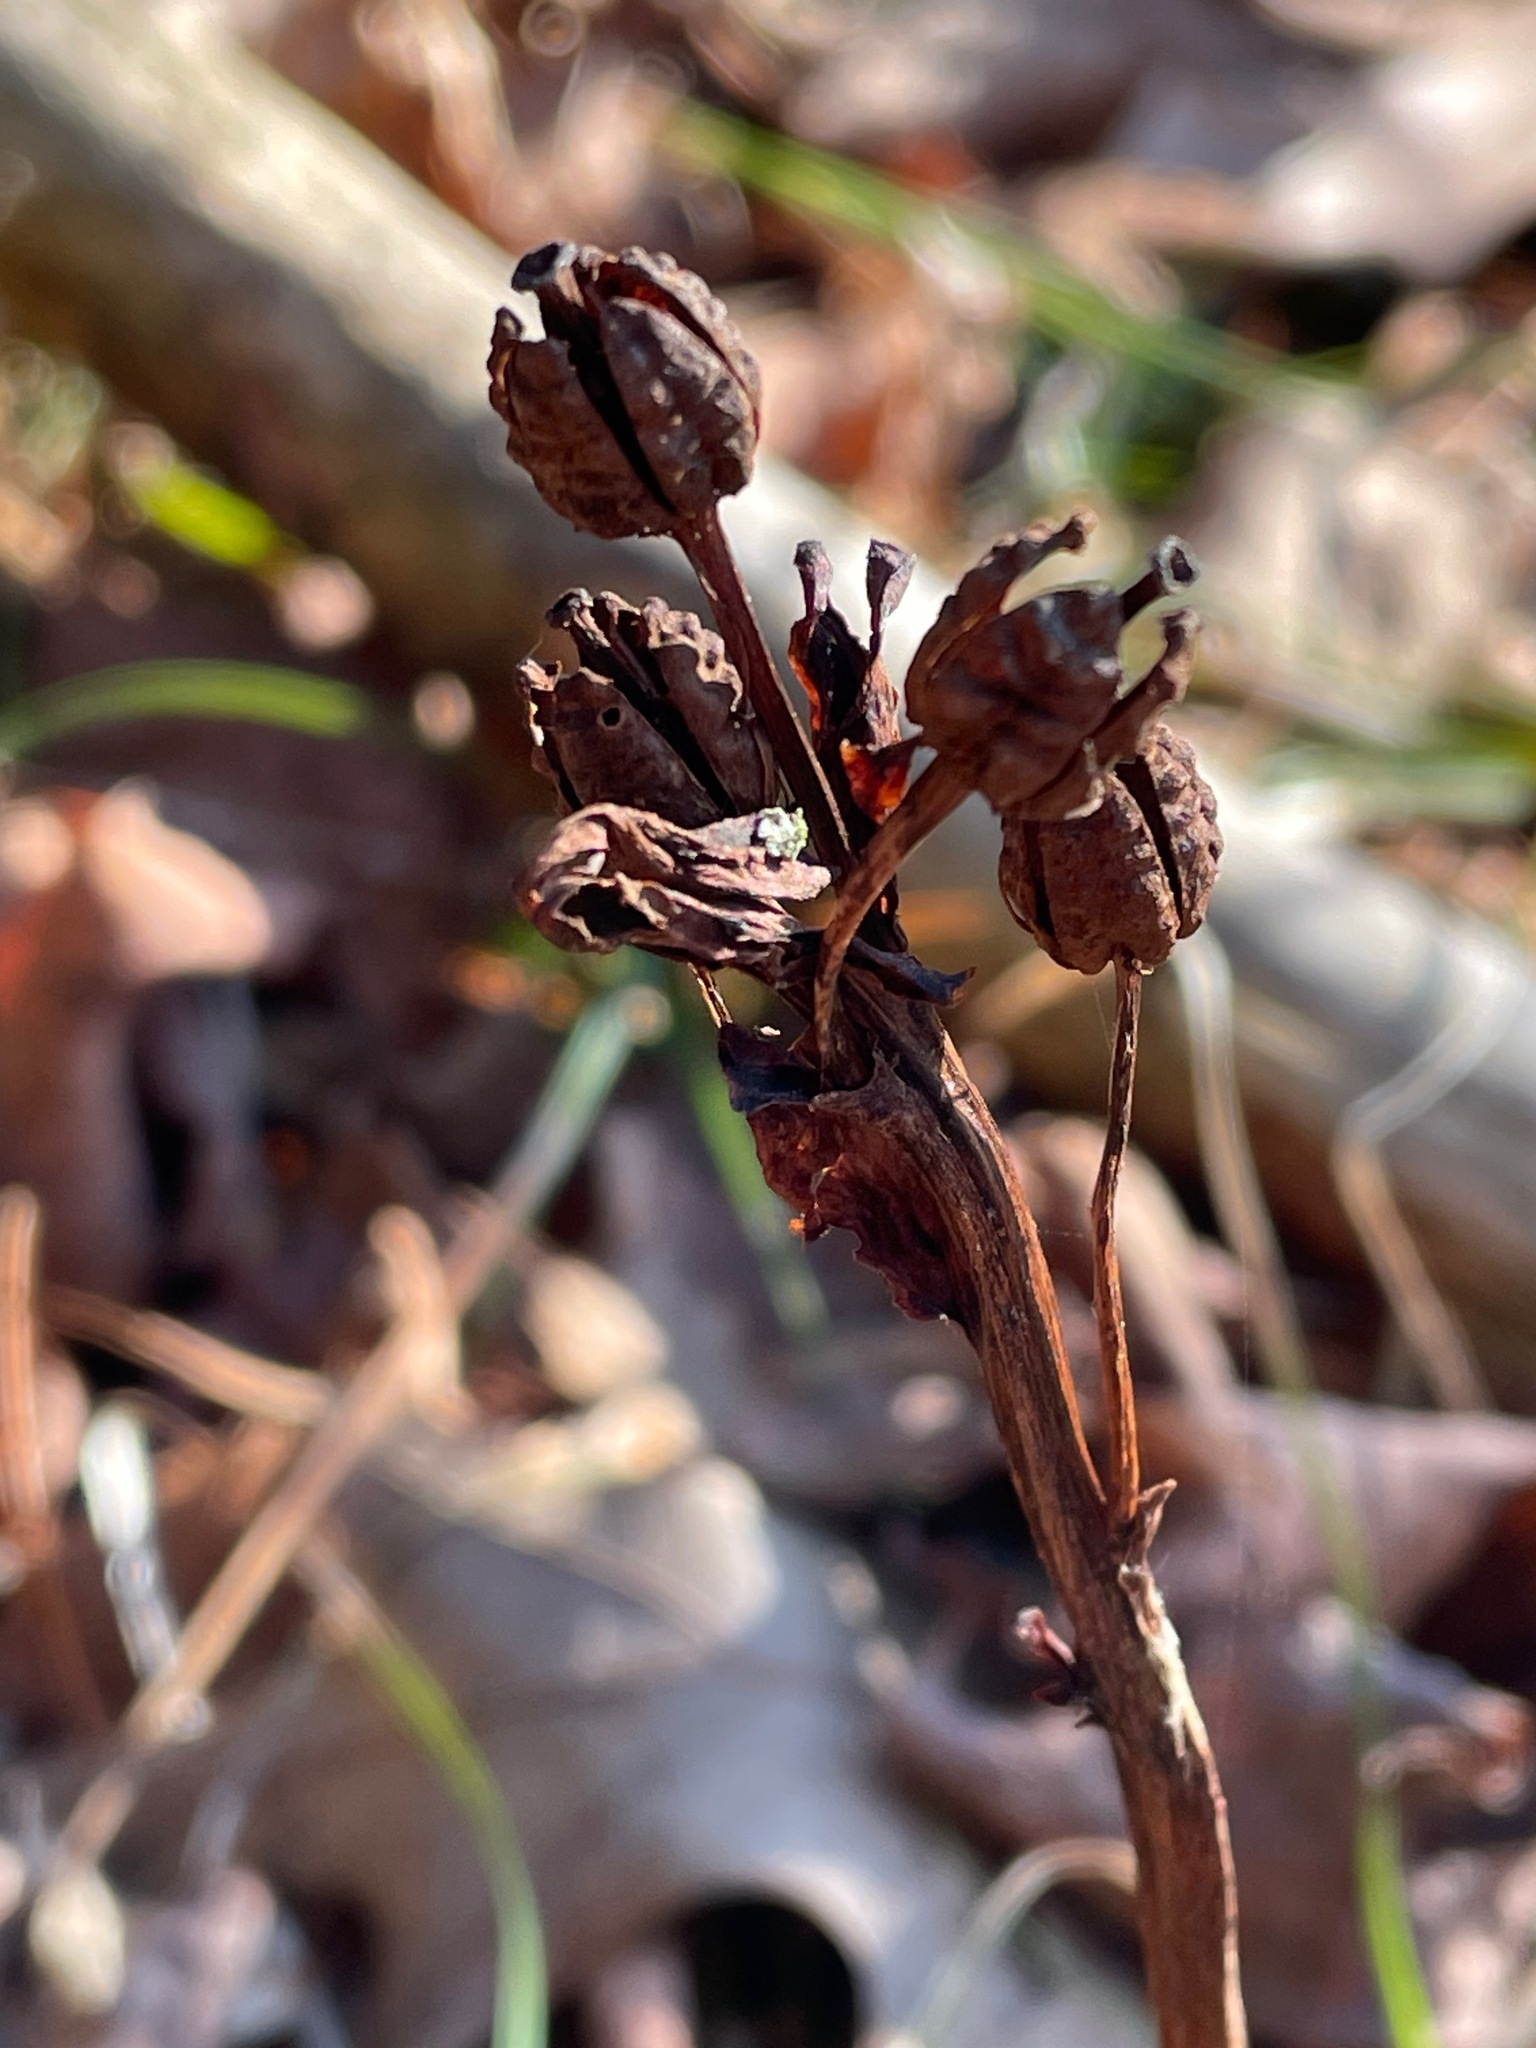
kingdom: Plantae
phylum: Tracheophyta
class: Magnoliopsida
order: Ericales
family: Ericaceae
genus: Hypopitys
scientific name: Hypopitys monotropa
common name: Yellow bird's-nest
